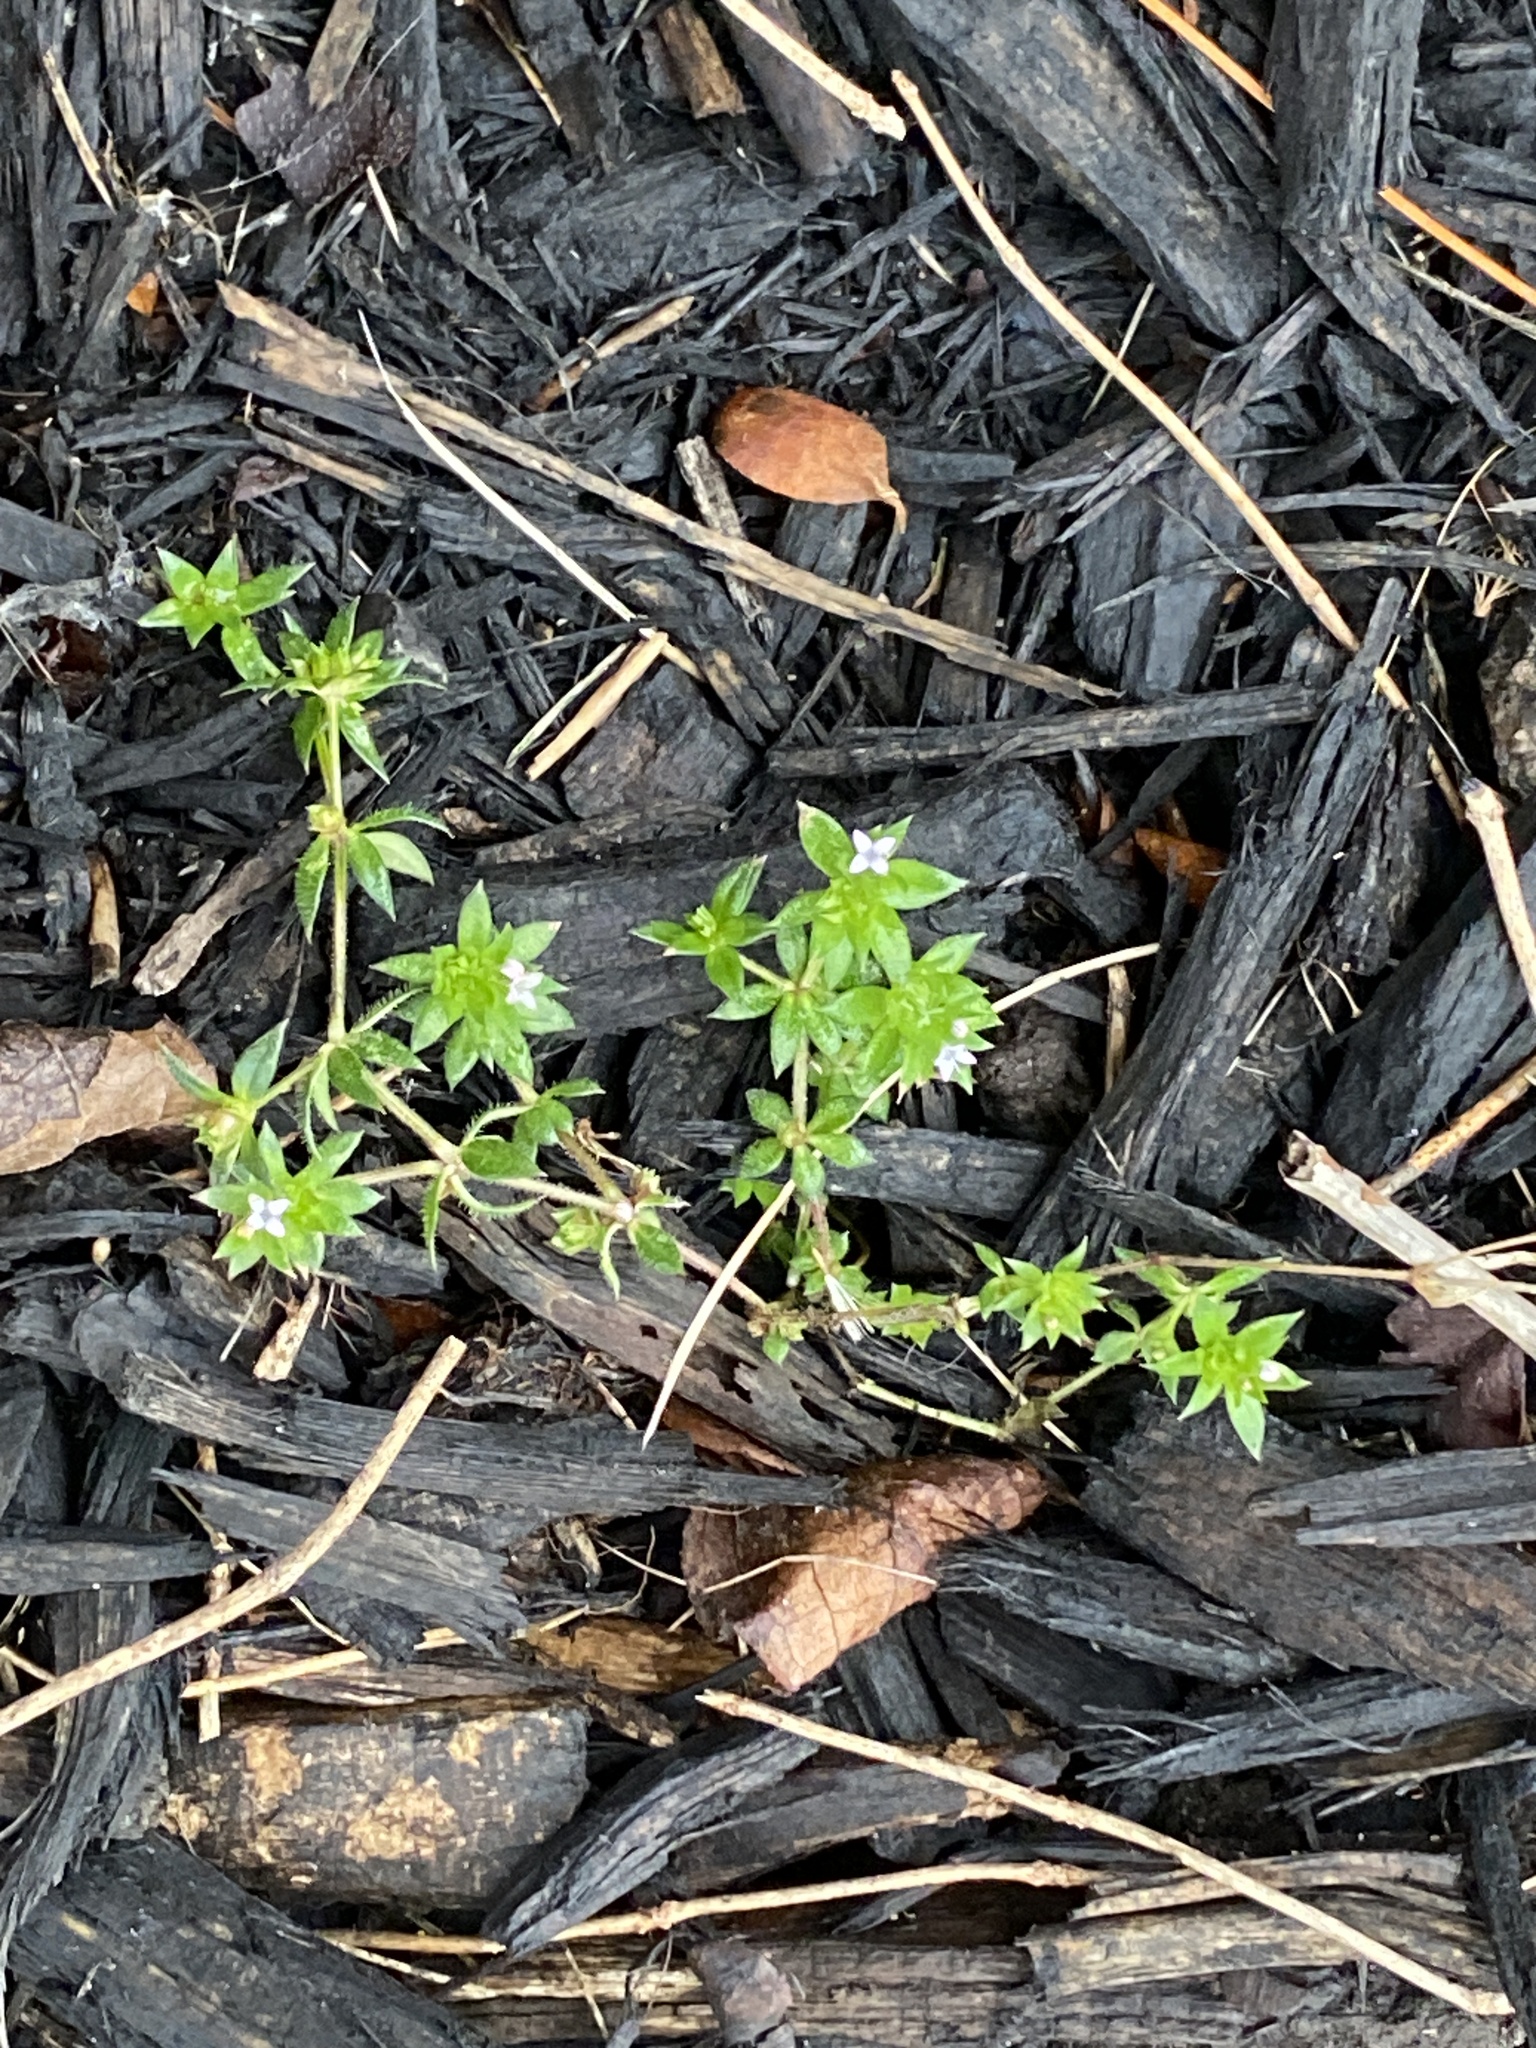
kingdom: Plantae
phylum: Tracheophyta
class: Magnoliopsida
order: Gentianales
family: Rubiaceae
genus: Sherardia
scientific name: Sherardia arvensis
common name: Field madder
